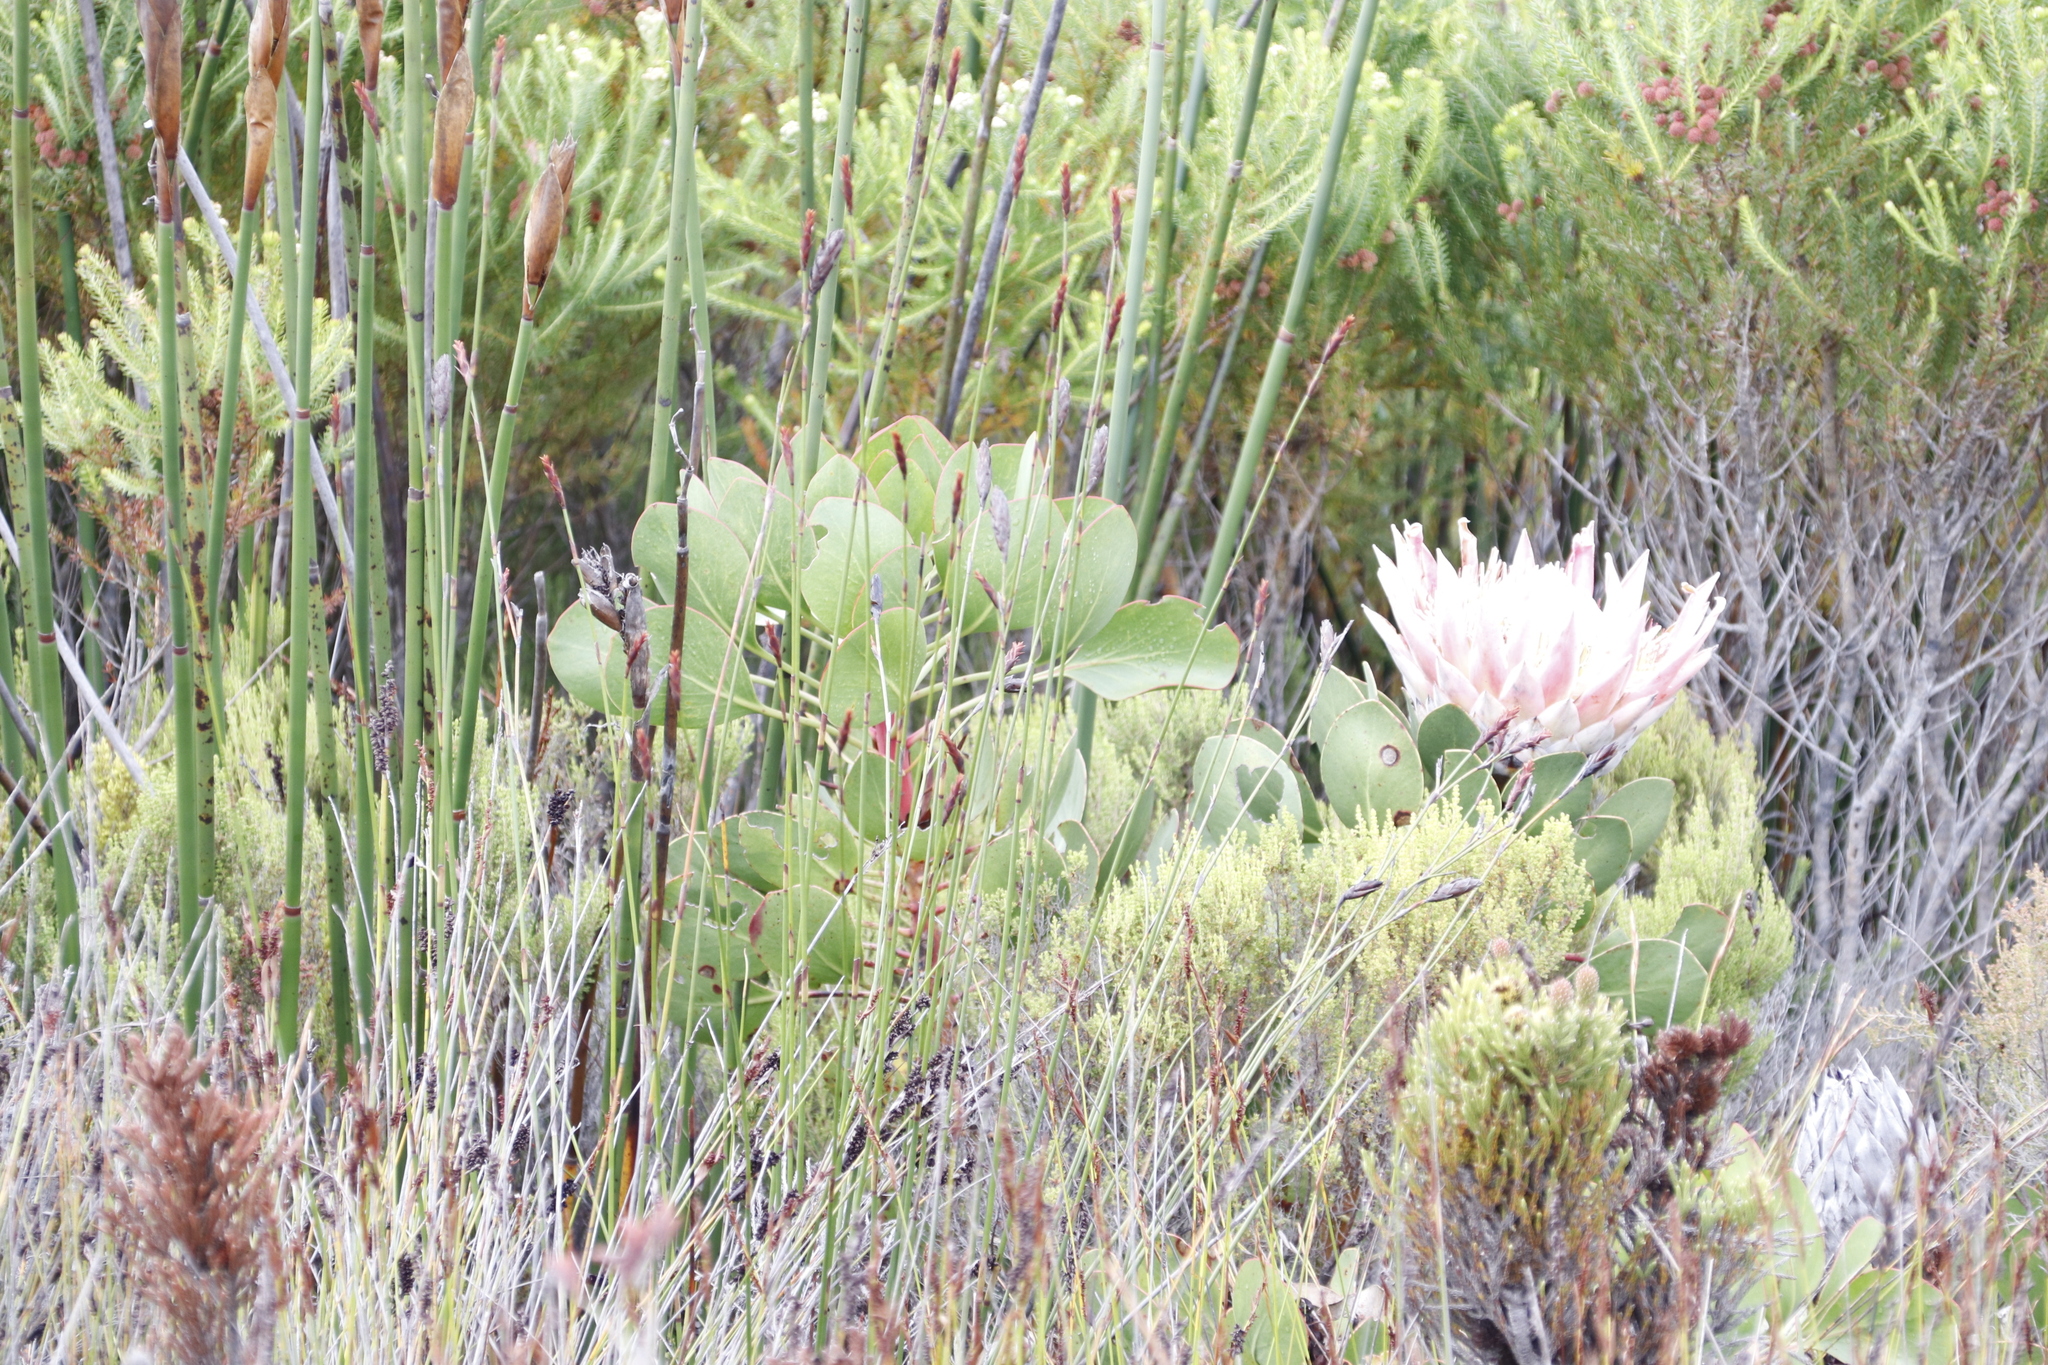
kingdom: Plantae
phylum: Tracheophyta
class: Magnoliopsida
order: Proteales
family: Proteaceae
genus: Protea
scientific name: Protea cynaroides
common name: King protea
